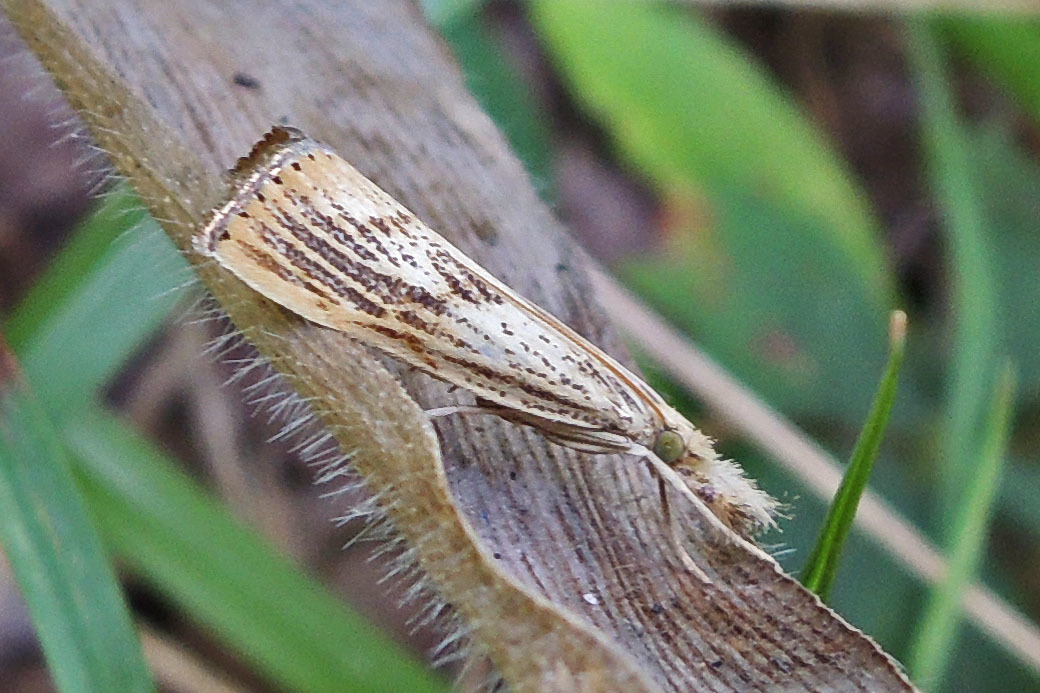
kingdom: Animalia
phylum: Arthropoda
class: Insecta
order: Lepidoptera
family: Crambidae
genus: Agriphila
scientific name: Agriphila ruricolellus
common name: Lesser vagabond sod webworm
